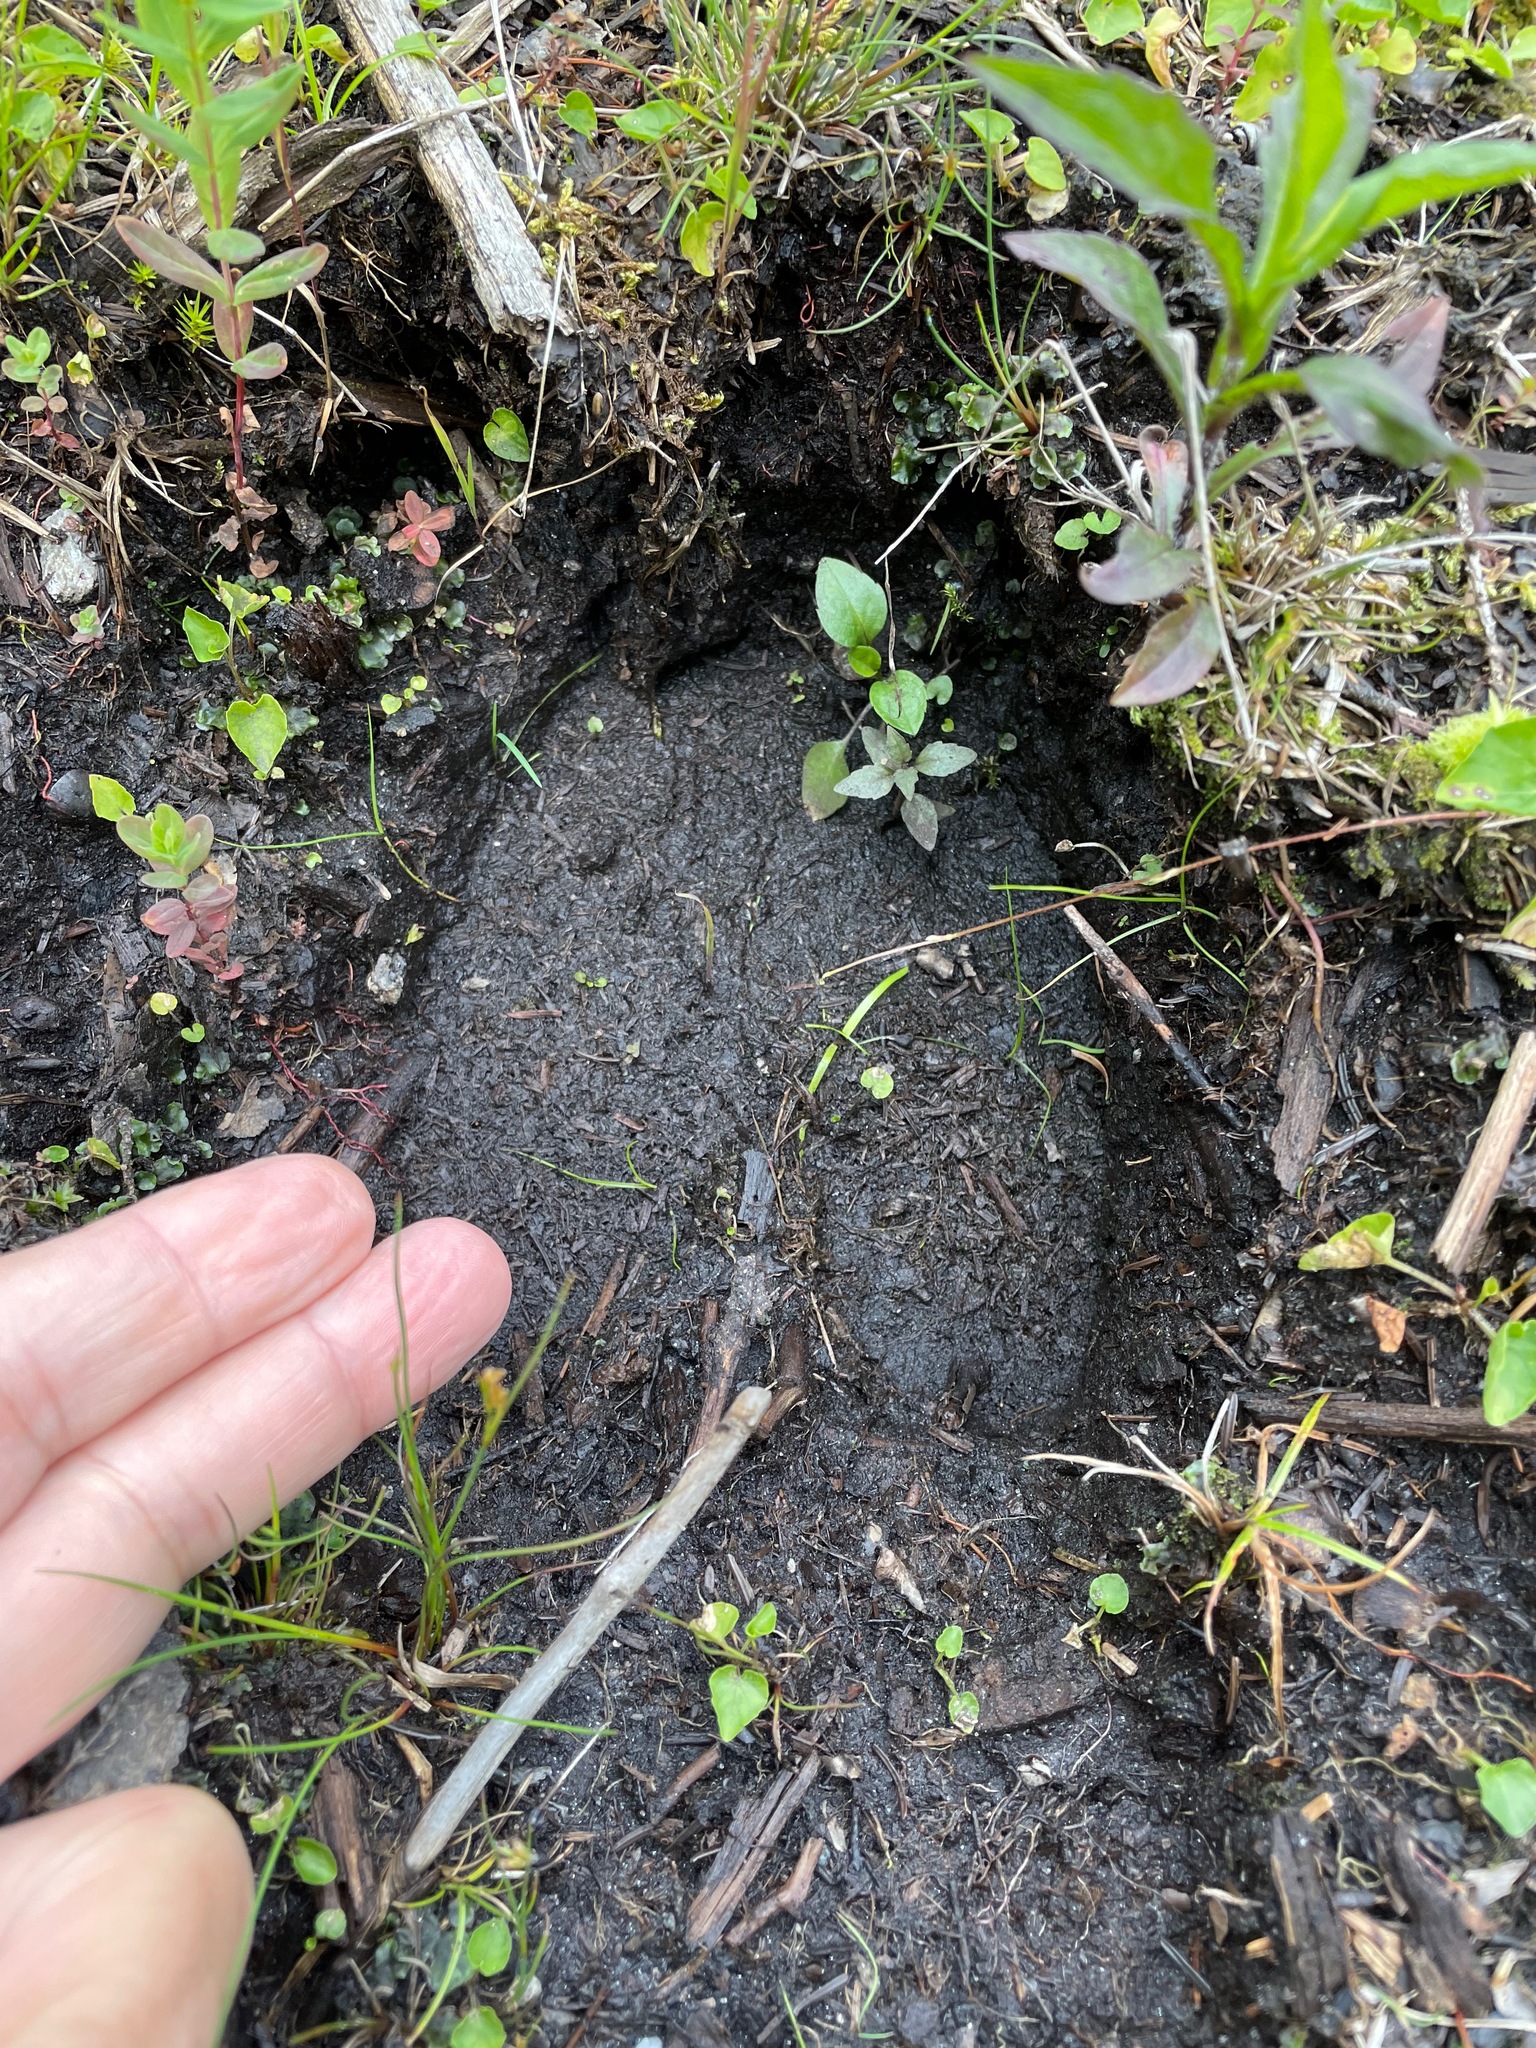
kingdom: Animalia
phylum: Chordata
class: Mammalia
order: Artiodactyla
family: Cervidae
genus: Alces
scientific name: Alces alces
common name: Moose
